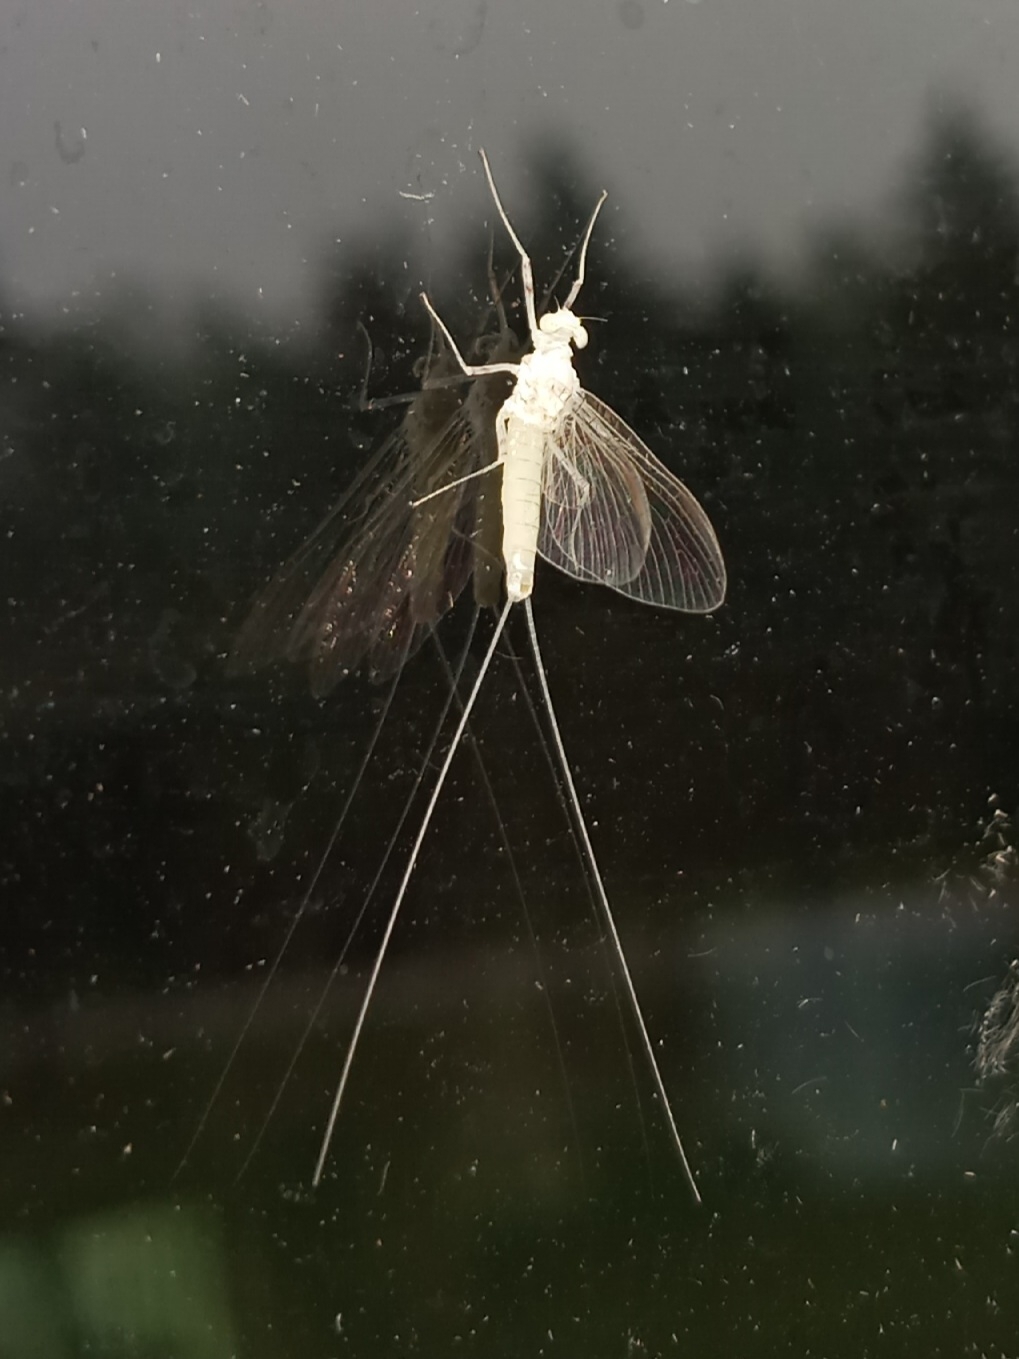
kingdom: Animalia
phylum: Arthropoda
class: Insecta
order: Ephemeroptera
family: Heptageniidae
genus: Maccaffertium
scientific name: Maccaffertium terminatum
